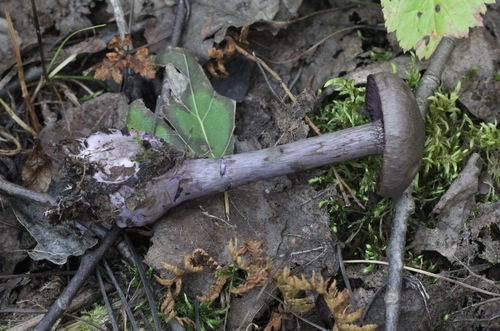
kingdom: Fungi
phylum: Basidiomycota
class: Agaricomycetes
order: Agaricales
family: Cortinariaceae
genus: Cortinarius
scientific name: Cortinarius violaceus
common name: Violet webcap
